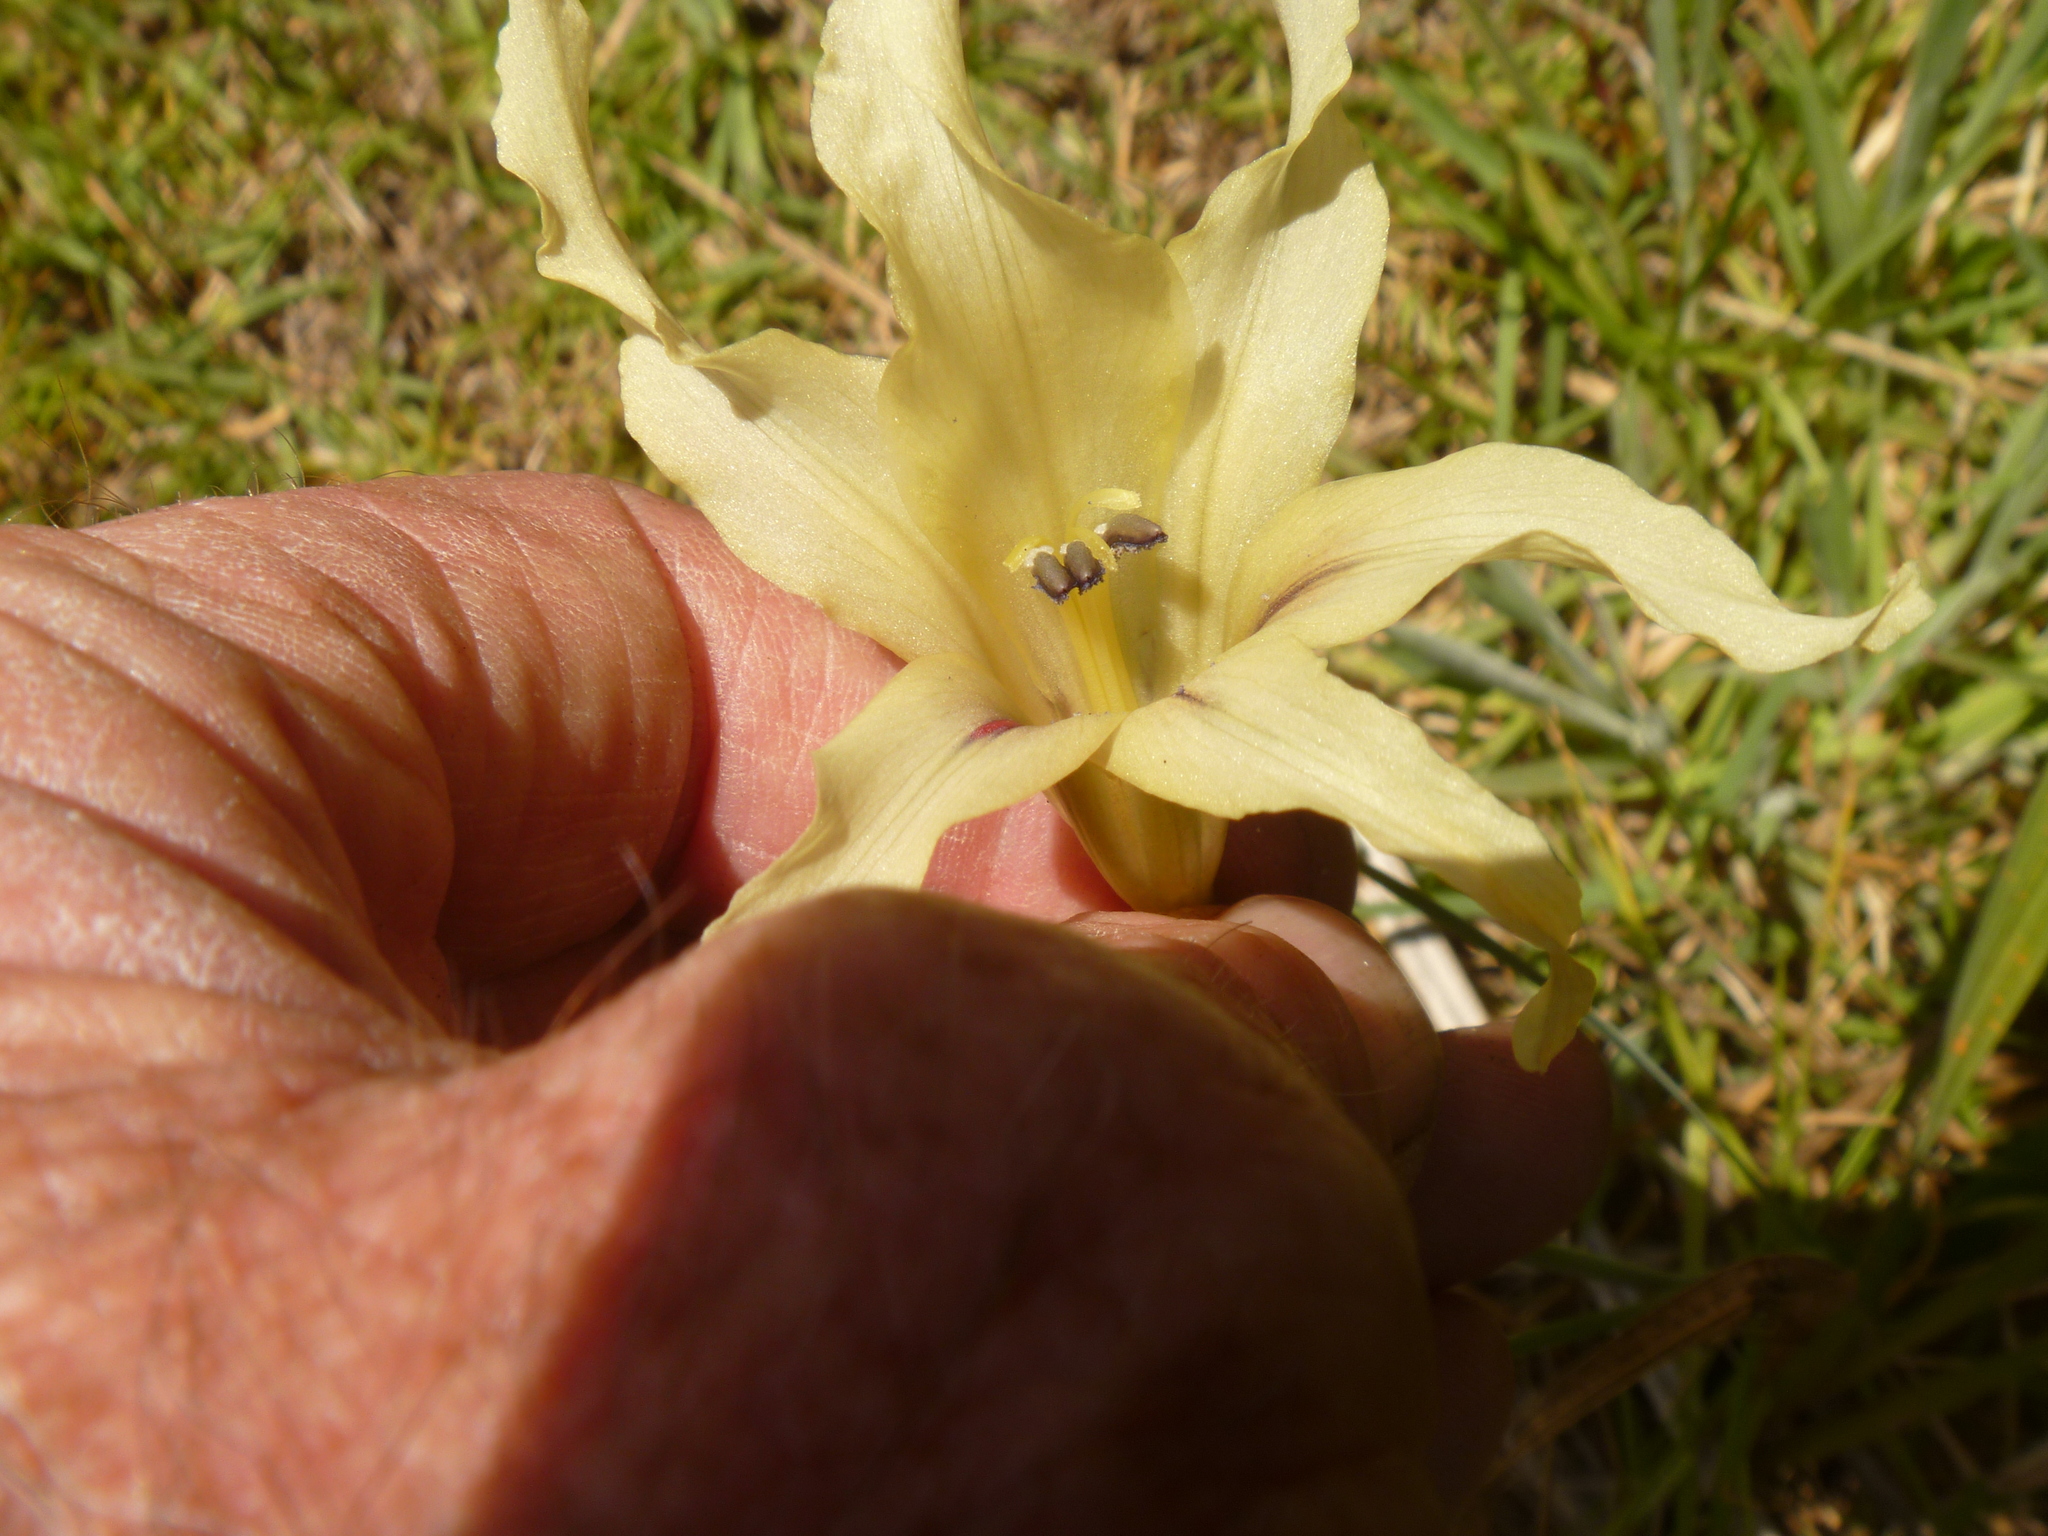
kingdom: Plantae
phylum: Tracheophyta
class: Liliopsida
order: Asparagales
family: Iridaceae
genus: Gladiolus
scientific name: Gladiolus undulatus
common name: Large painted-lady
